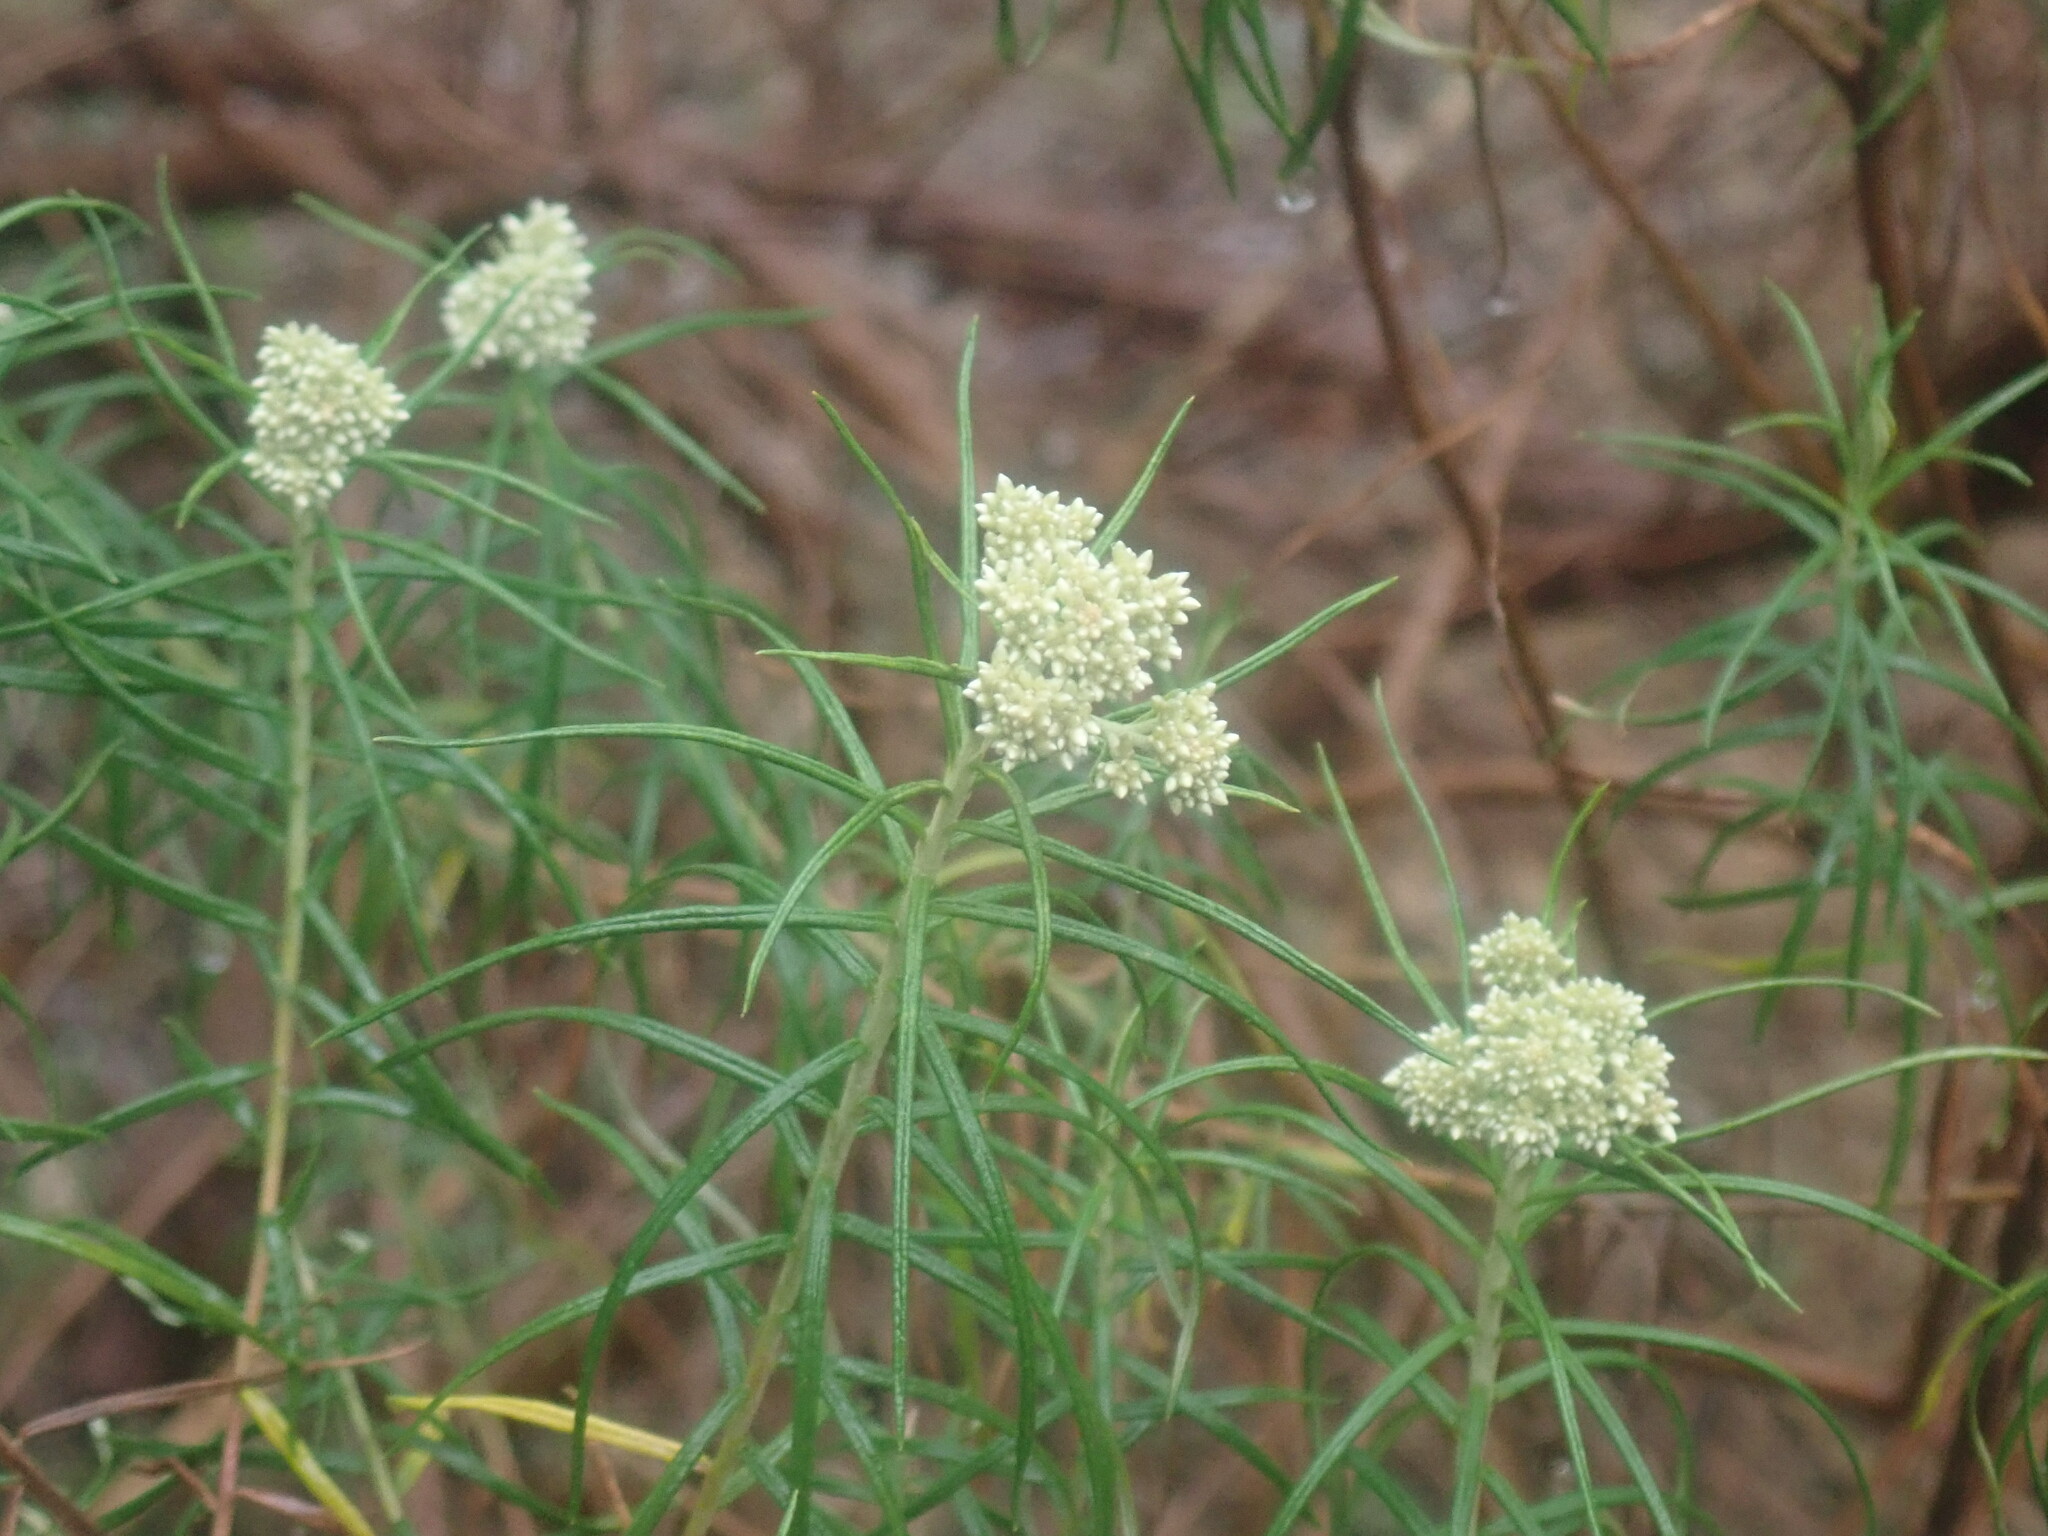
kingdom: Plantae
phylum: Tracheophyta
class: Magnoliopsida
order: Asterales
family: Asteraceae
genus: Cassinia
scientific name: Cassinia longifolia
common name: Longleaf-dogwood
